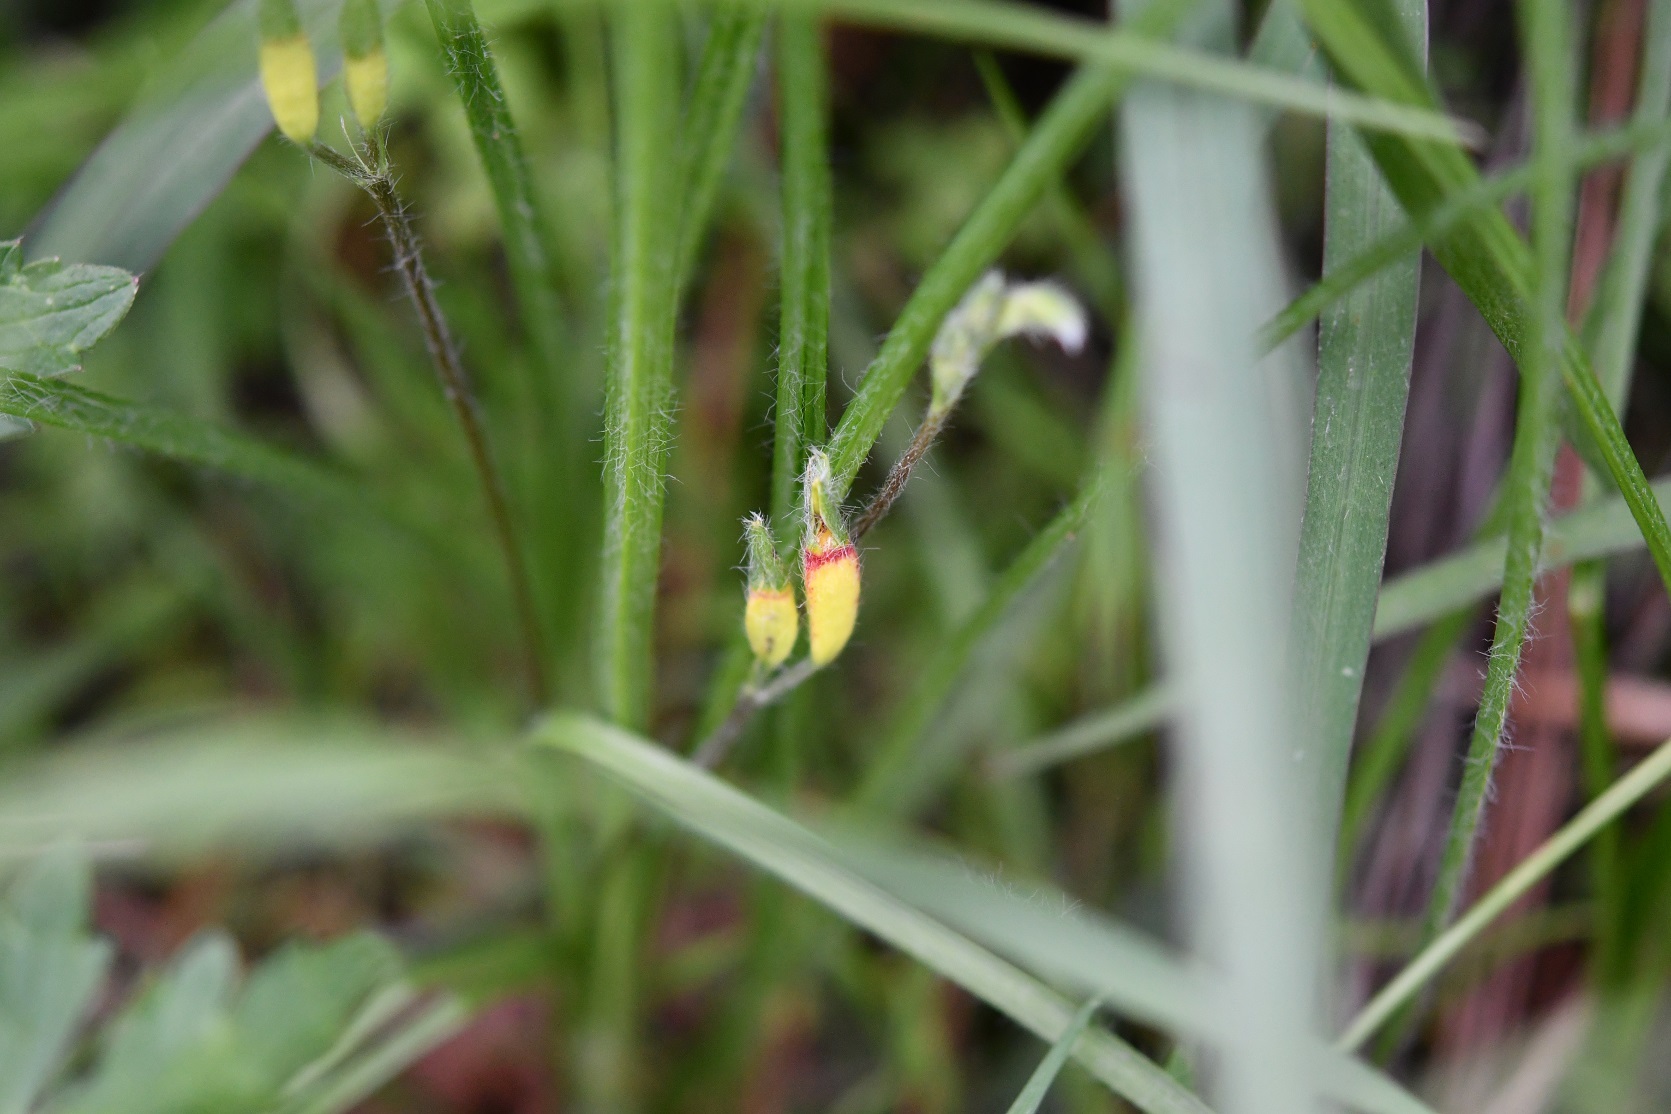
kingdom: Plantae
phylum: Tracheophyta
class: Liliopsida
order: Asparagales
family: Hypoxidaceae
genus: Hypoxis
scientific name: Hypoxis decumbens
